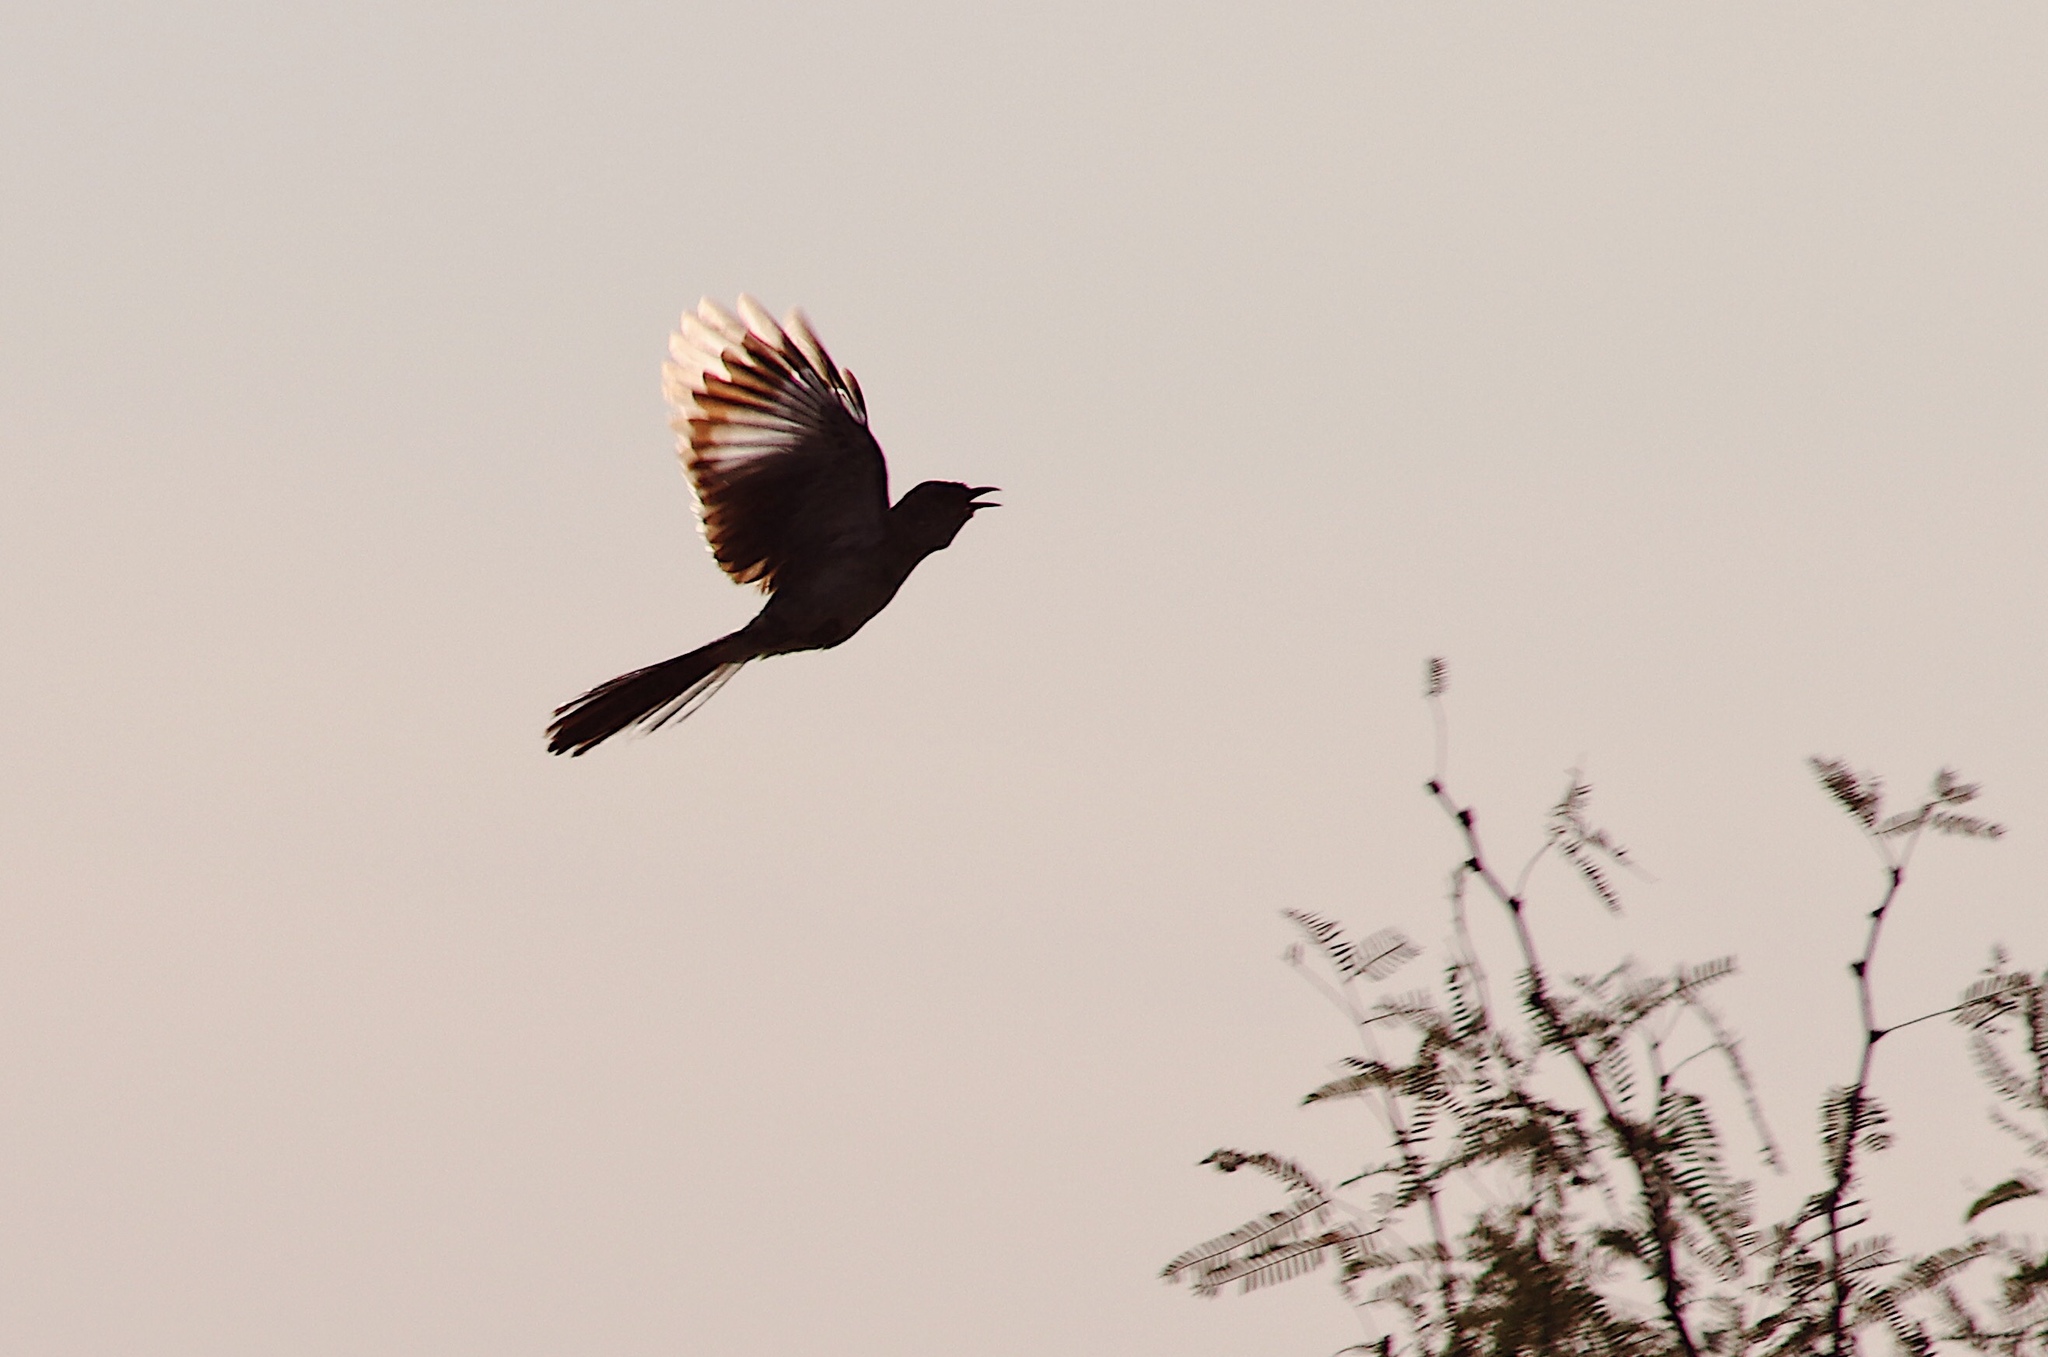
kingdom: Animalia
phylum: Chordata
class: Aves
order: Passeriformes
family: Mimidae
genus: Mimus
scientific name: Mimus polyglottos
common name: Northern mockingbird
